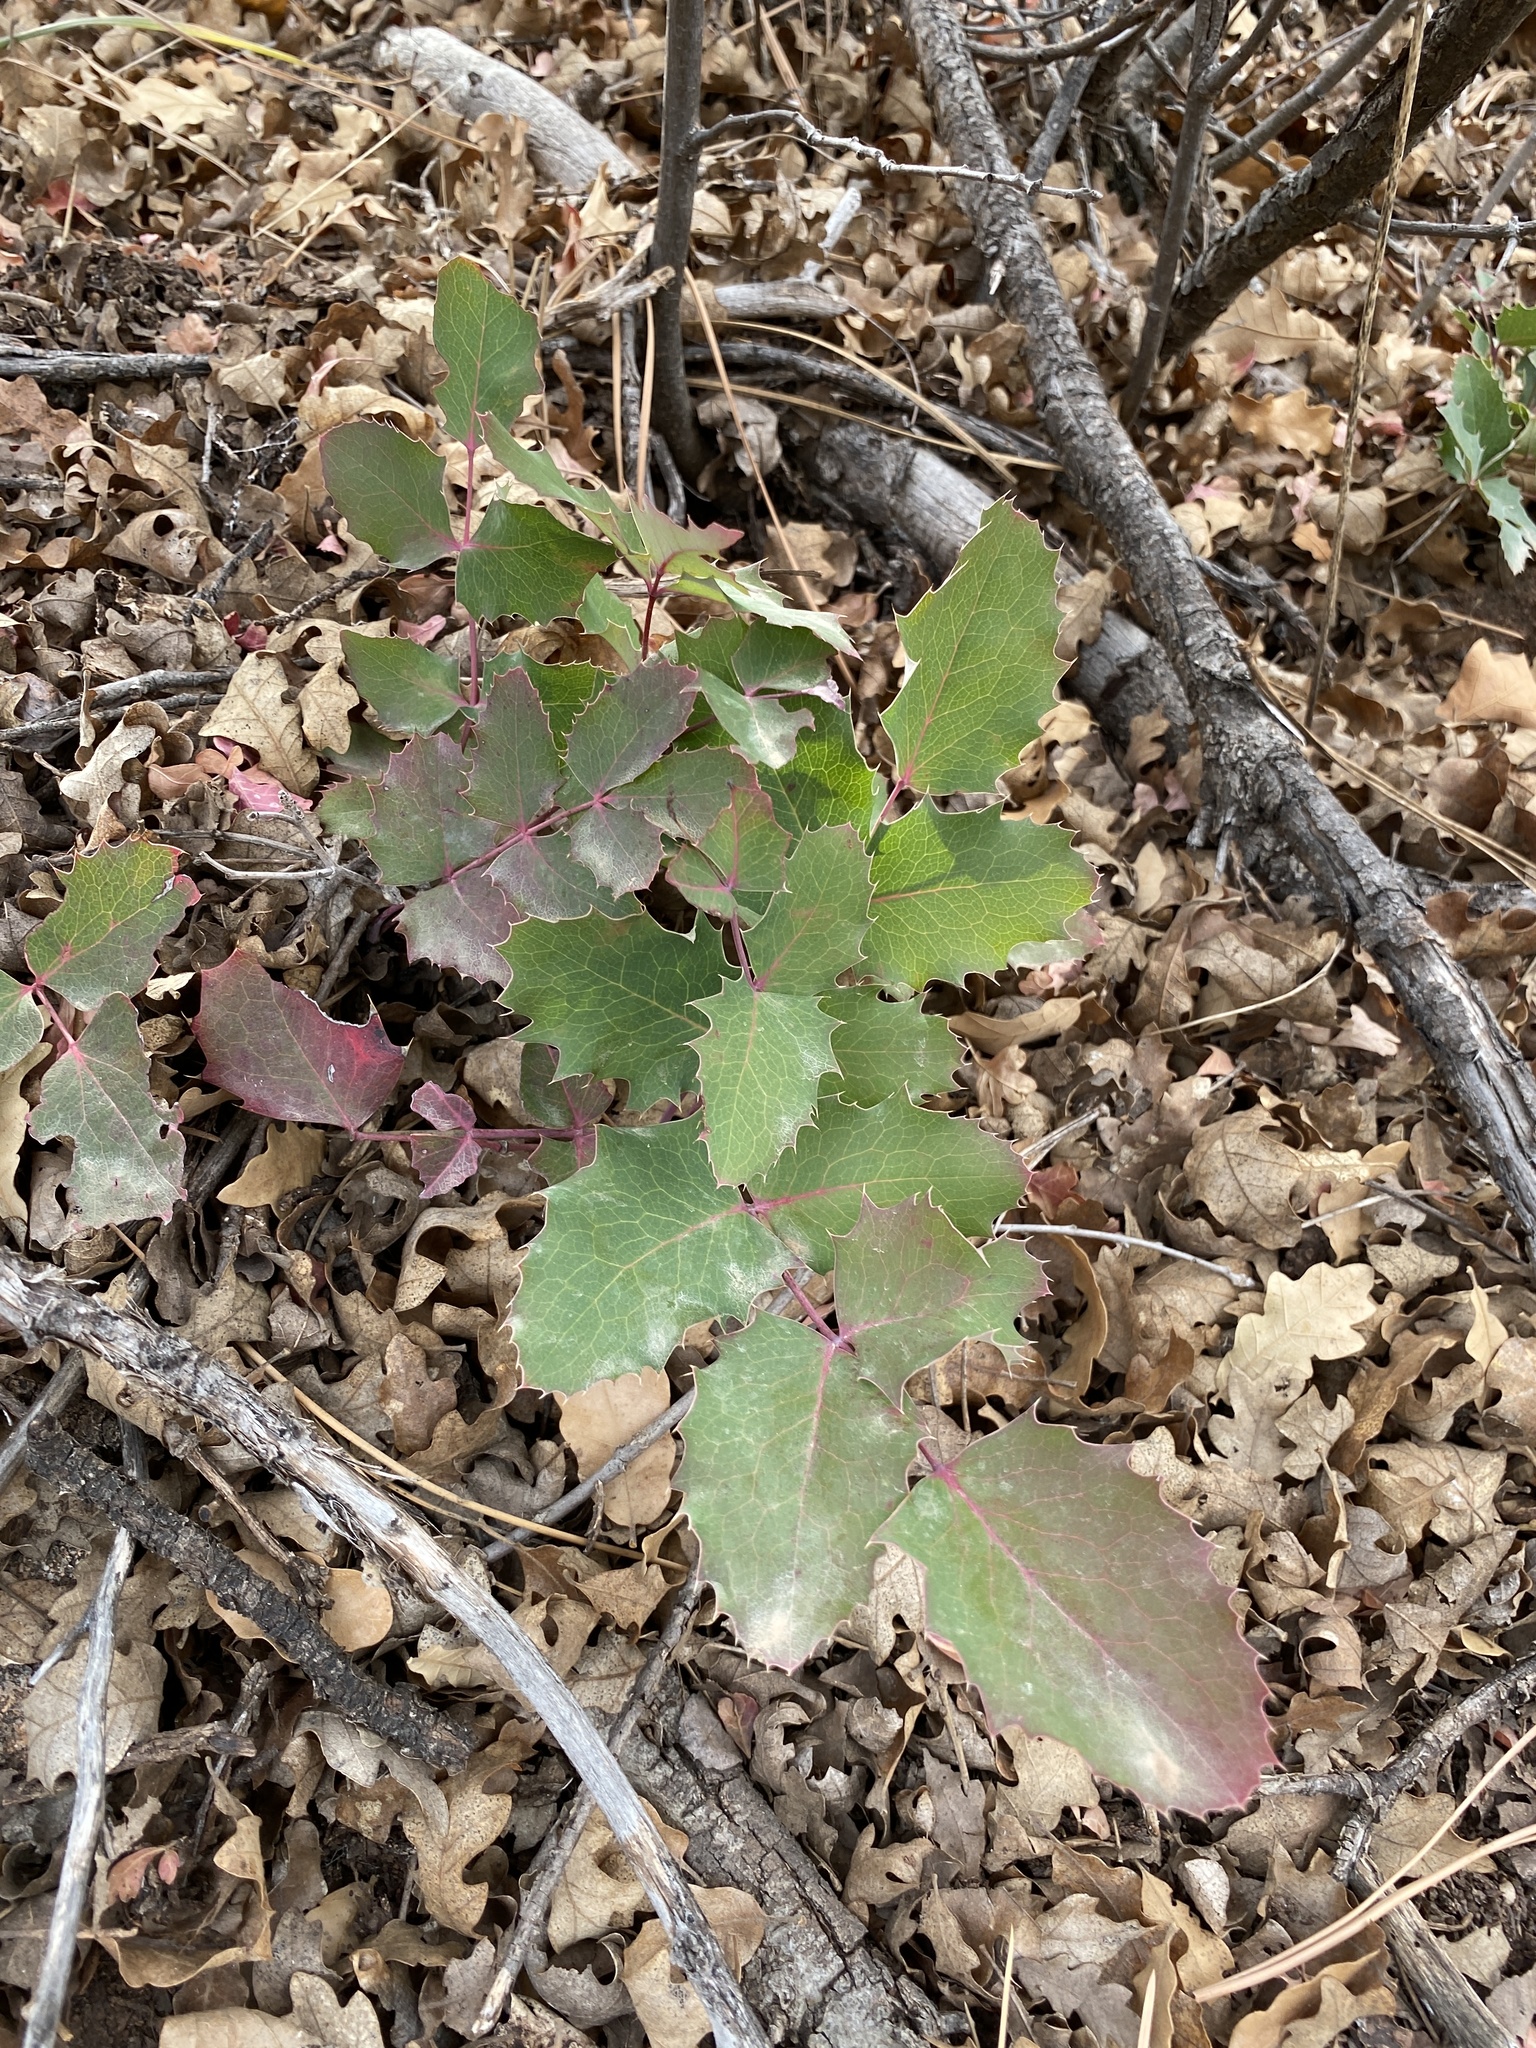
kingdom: Plantae
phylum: Tracheophyta
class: Magnoliopsida
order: Ranunculales
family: Berberidaceae
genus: Mahonia
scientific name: Mahonia repens
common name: Creeping oregon-grape
